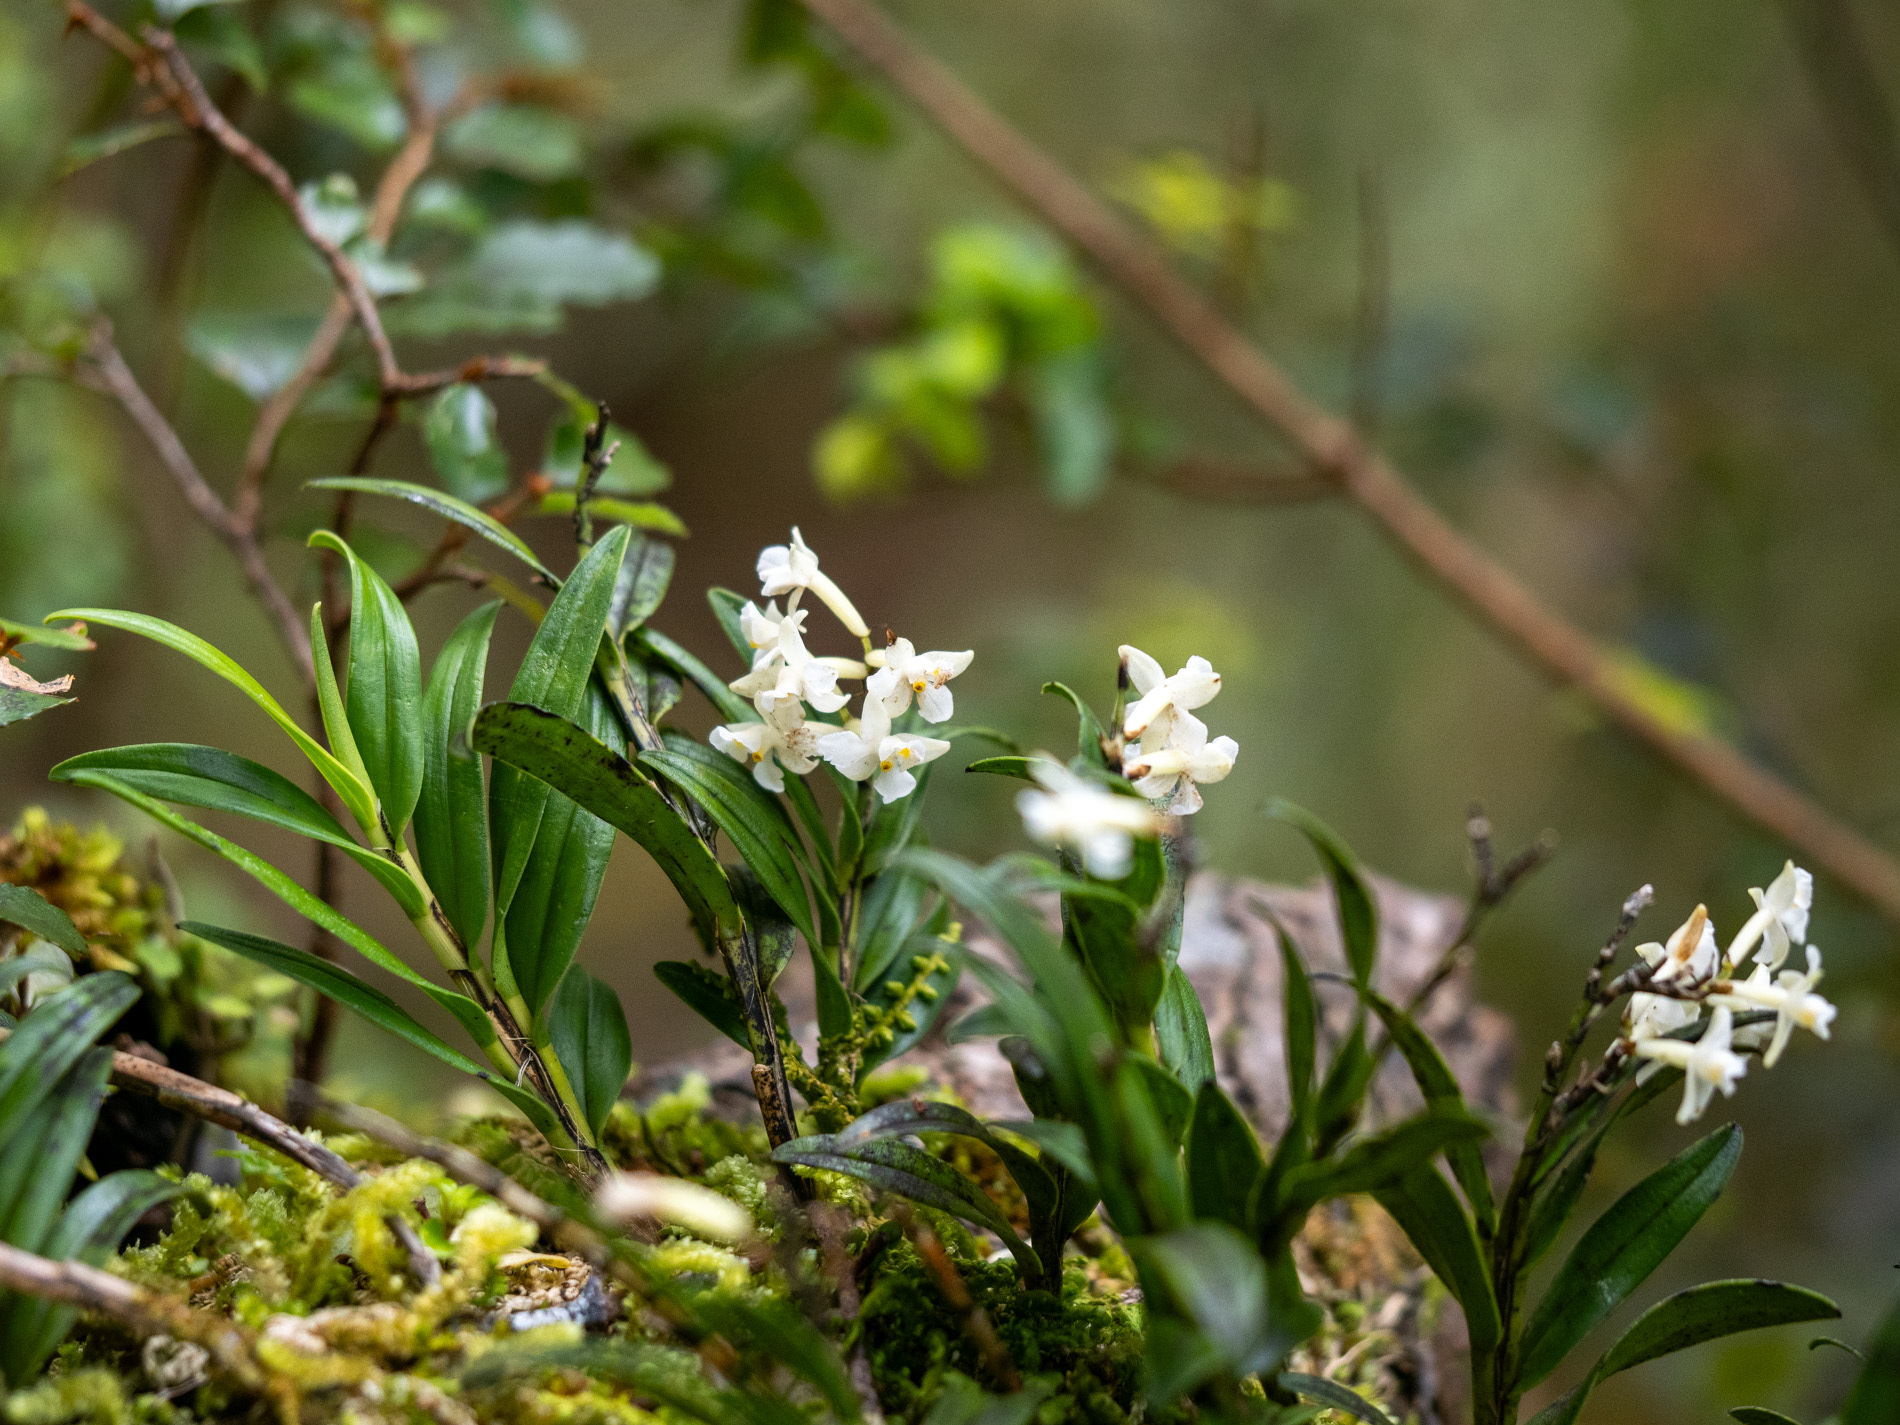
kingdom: Plantae
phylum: Tracheophyta
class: Liliopsida
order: Asparagales
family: Orchidaceae
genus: Earina
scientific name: Earina autumnalis
